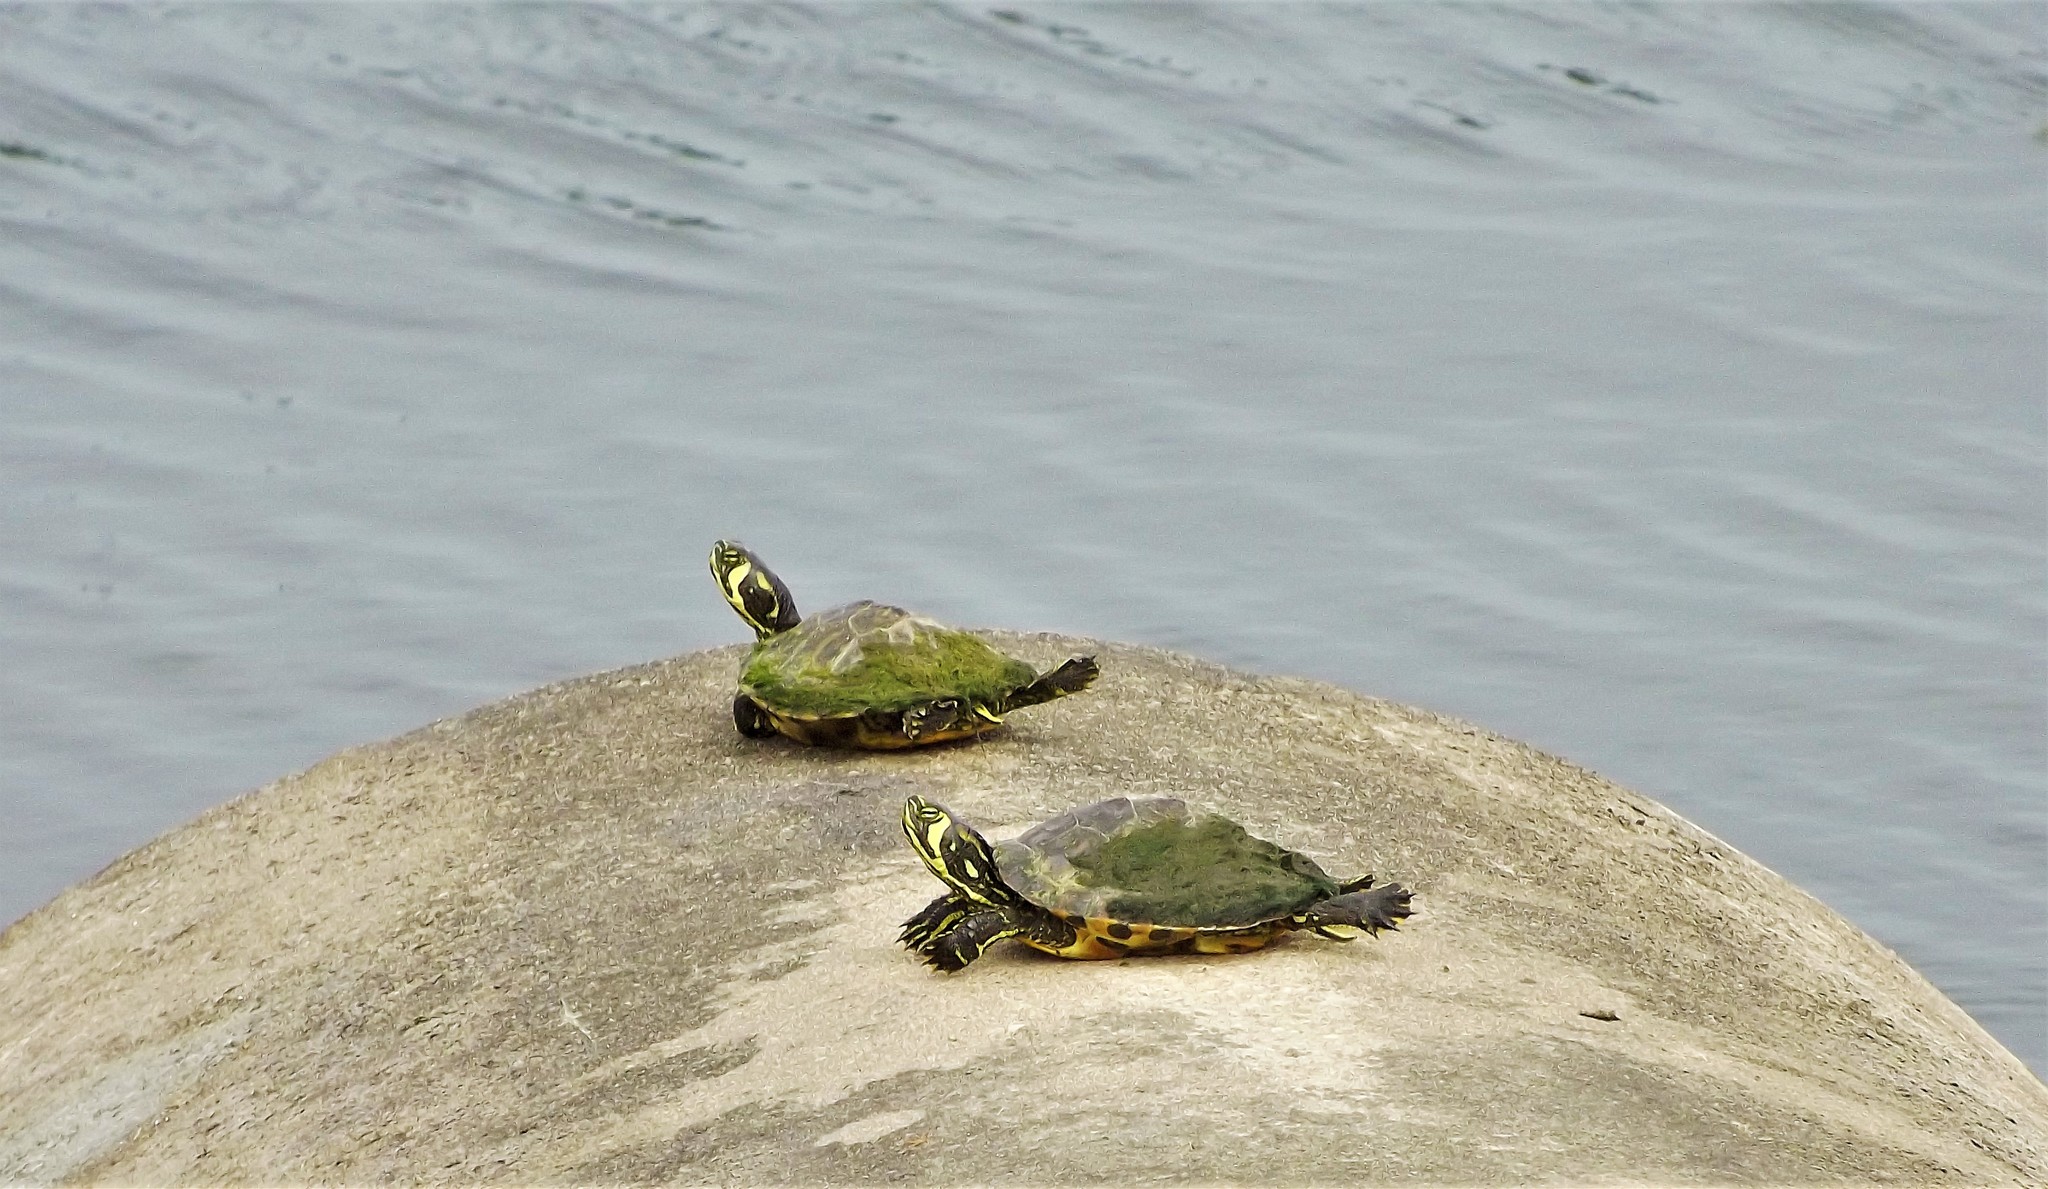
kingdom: Animalia
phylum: Chordata
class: Testudines
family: Emydidae
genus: Trachemys
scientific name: Trachemys scripta
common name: Slider
